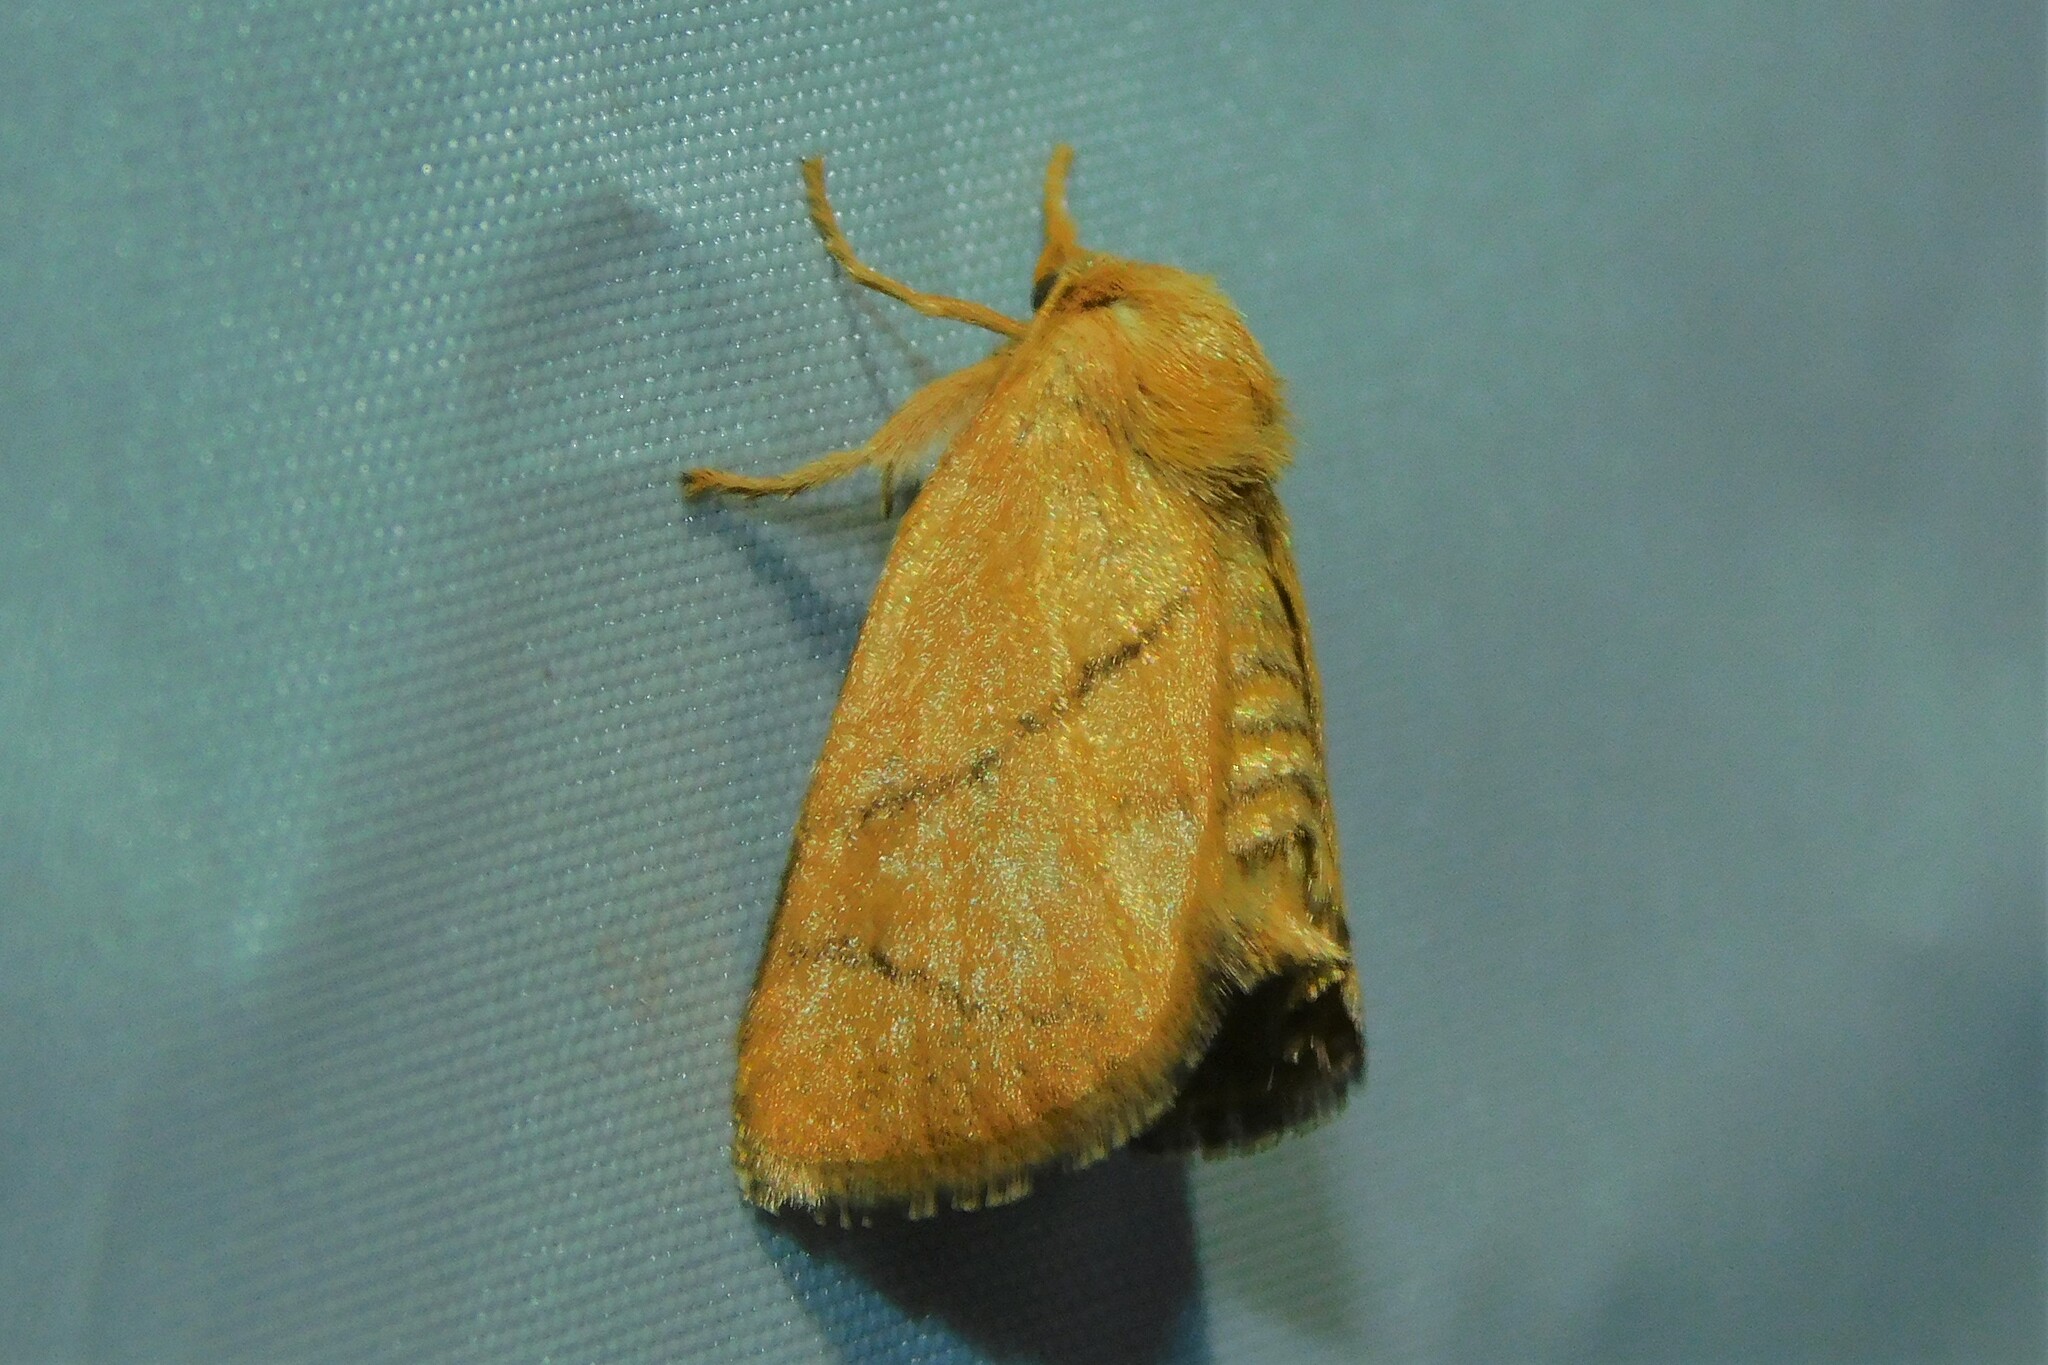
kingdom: Animalia
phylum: Arthropoda
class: Insecta
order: Lepidoptera
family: Limacodidae
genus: Apoda
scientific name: Apoda limacodes
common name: Festoon
